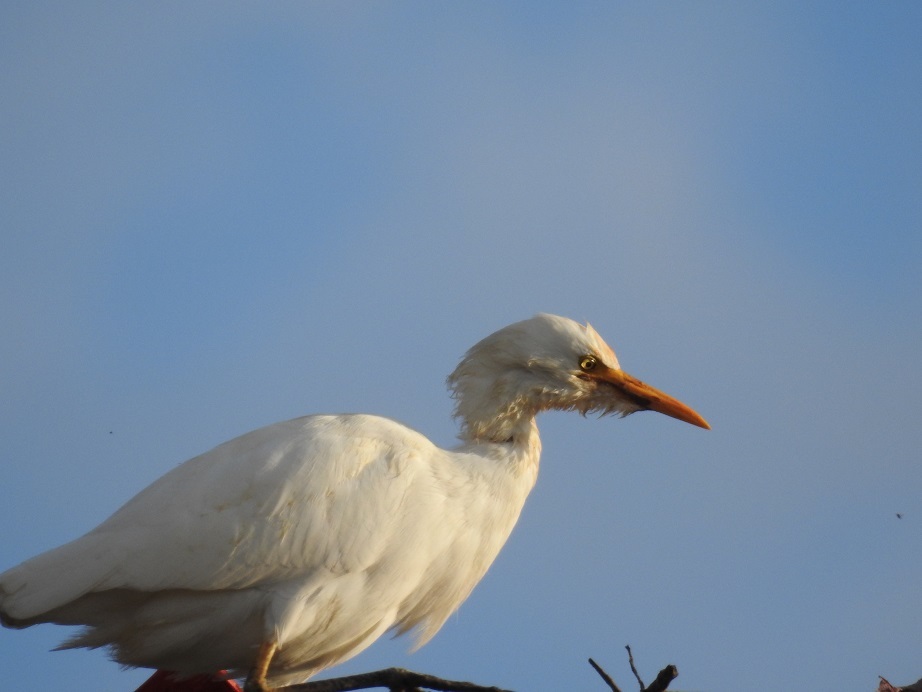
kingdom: Animalia
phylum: Chordata
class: Aves
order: Pelecaniformes
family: Ardeidae
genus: Bubulcus
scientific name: Bubulcus ibis
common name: Cattle egret
